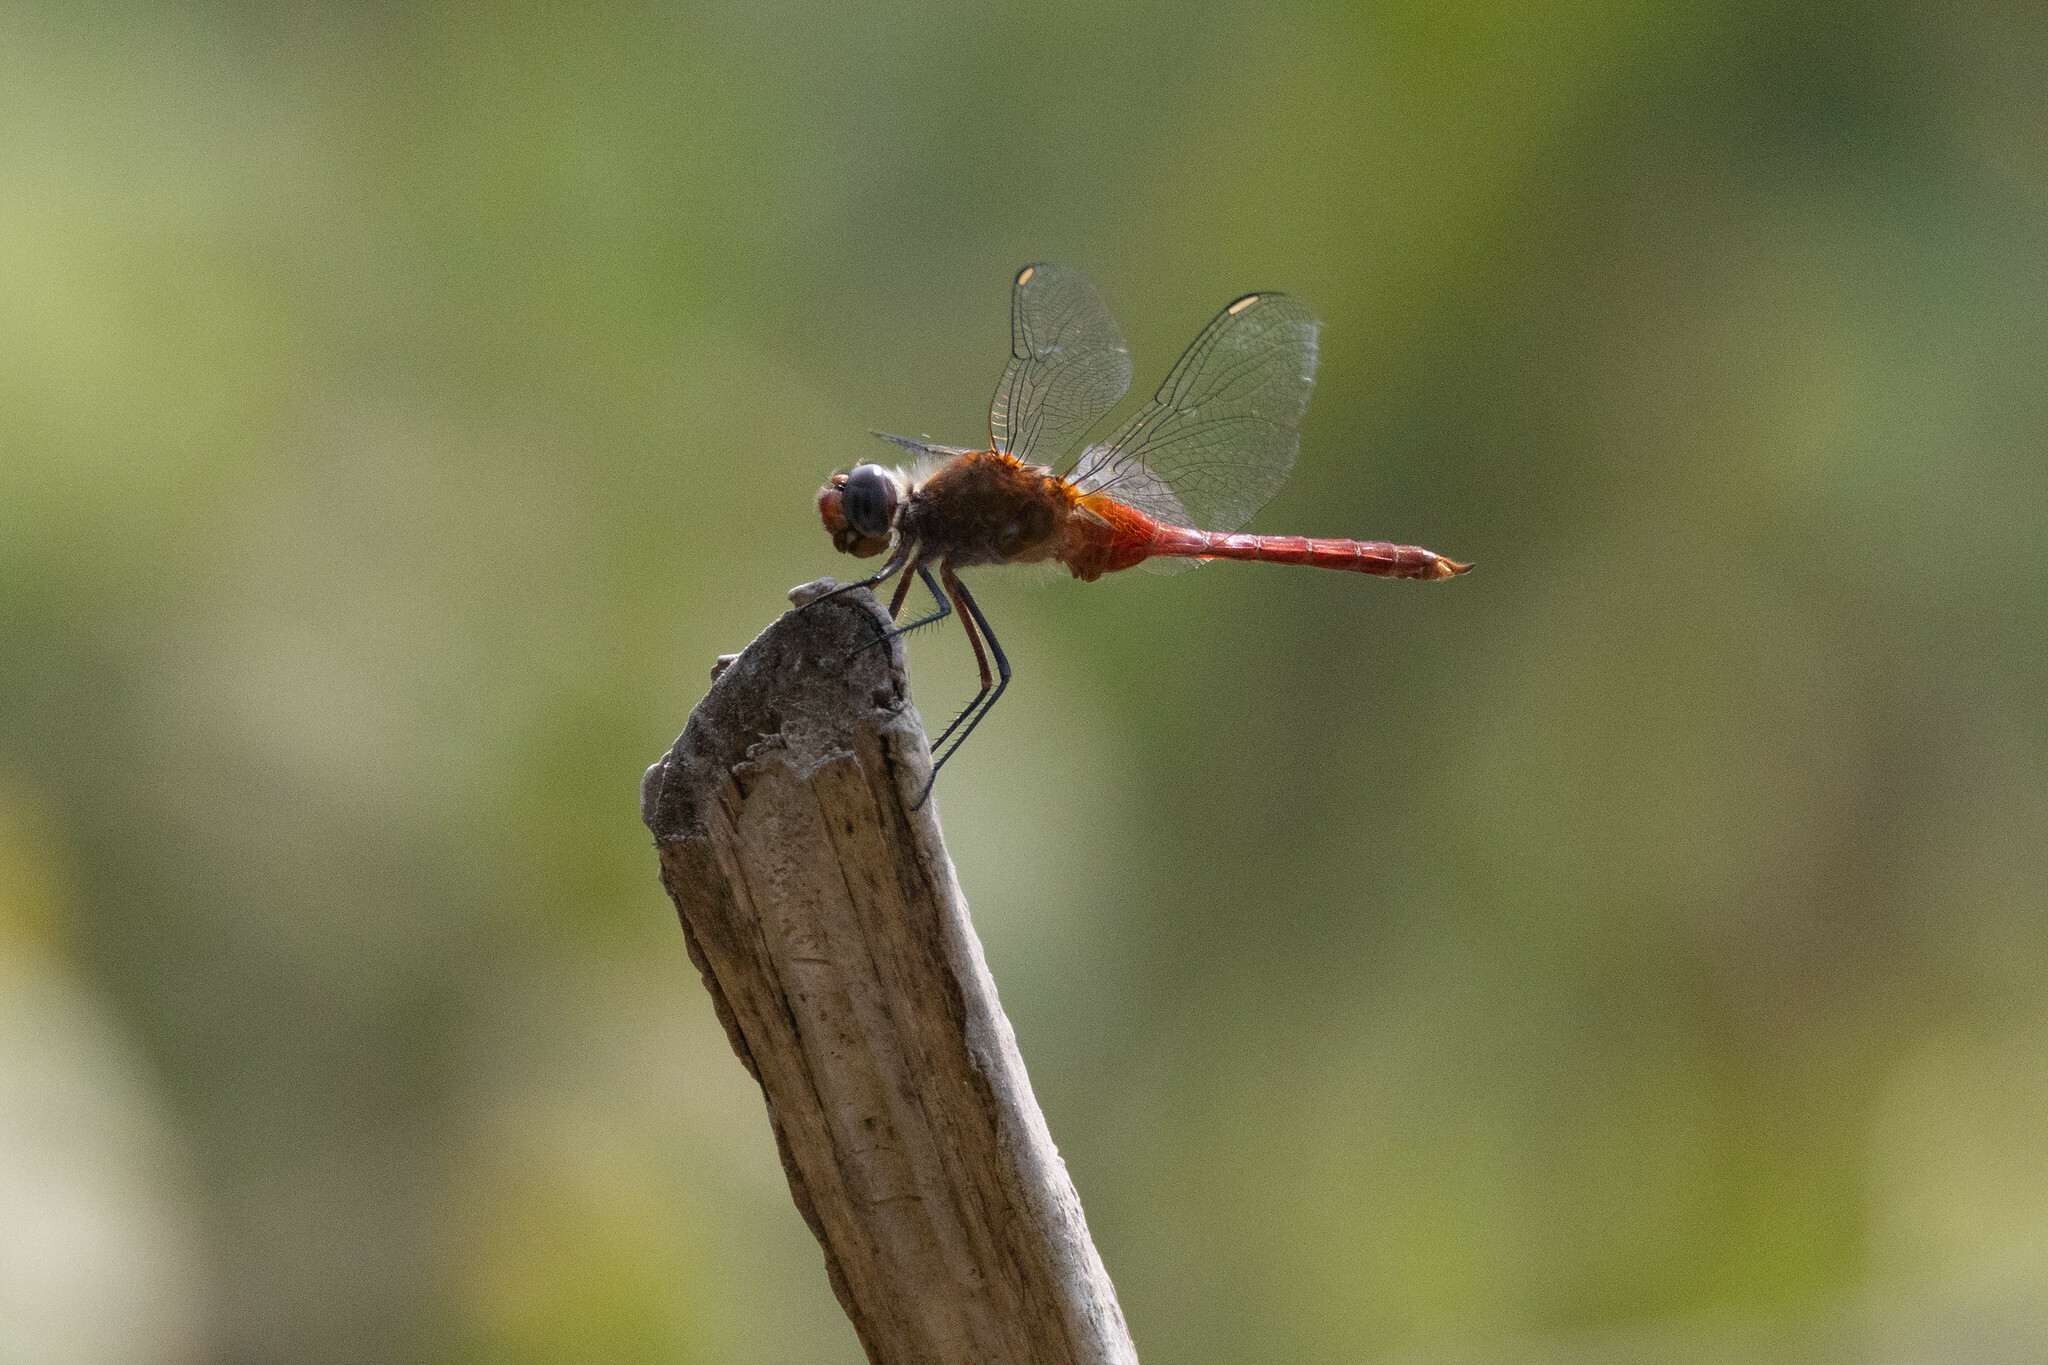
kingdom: Animalia
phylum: Arthropoda
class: Insecta
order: Odonata
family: Libellulidae
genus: Brachymesia
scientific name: Brachymesia furcata
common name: Red-taled pennant
